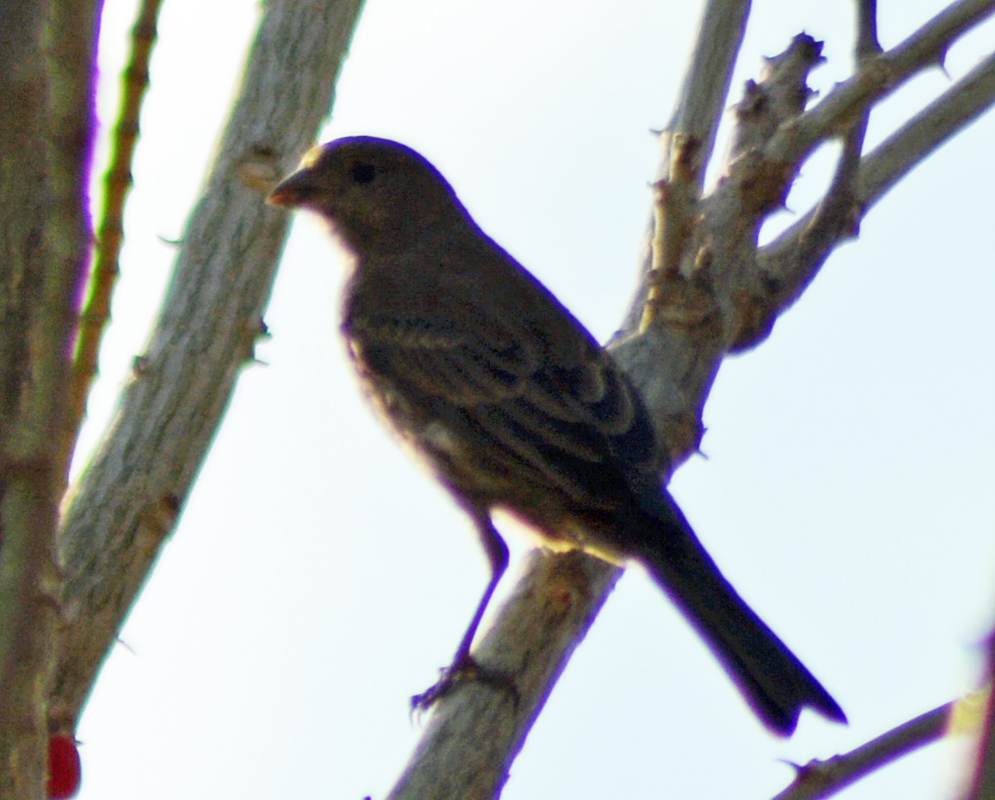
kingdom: Animalia
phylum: Chordata
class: Aves
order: Passeriformes
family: Fringillidae
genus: Haemorhous
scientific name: Haemorhous mexicanus
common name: House finch
